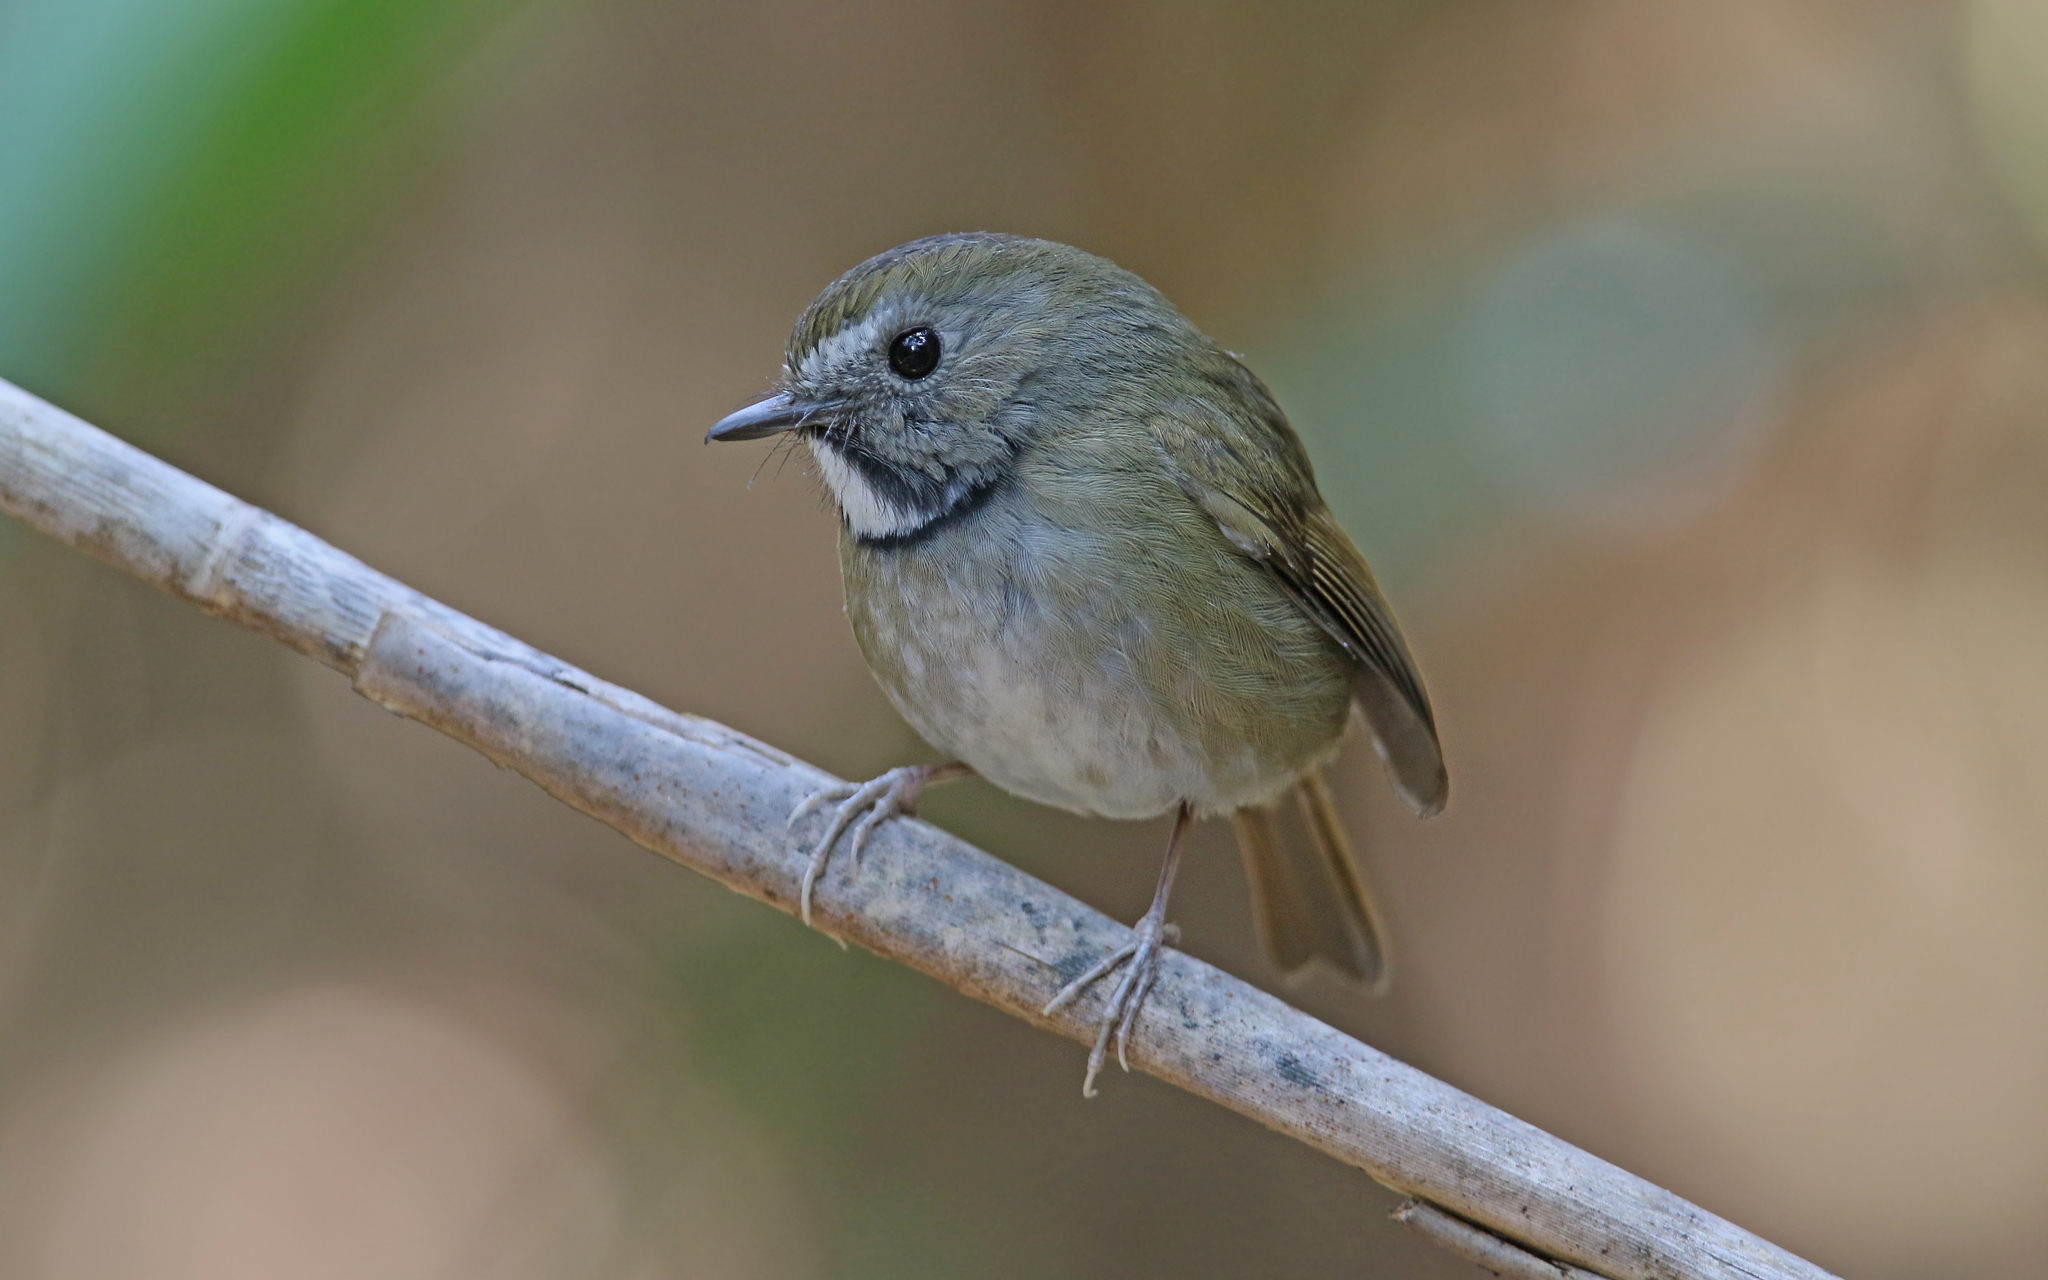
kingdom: Animalia
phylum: Chordata
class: Aves
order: Passeriformes
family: Muscicapidae
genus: Anthipes
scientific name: Anthipes monileger
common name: White-gorgeted flycatcher
